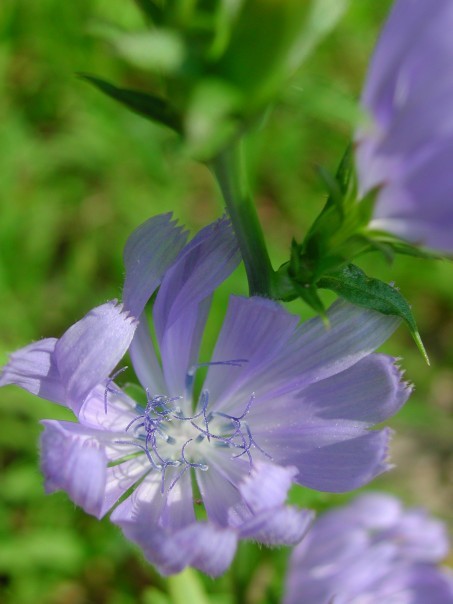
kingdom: Plantae
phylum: Tracheophyta
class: Magnoliopsida
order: Asterales
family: Asteraceae
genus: Cichorium
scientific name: Cichorium intybus
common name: Chicory
